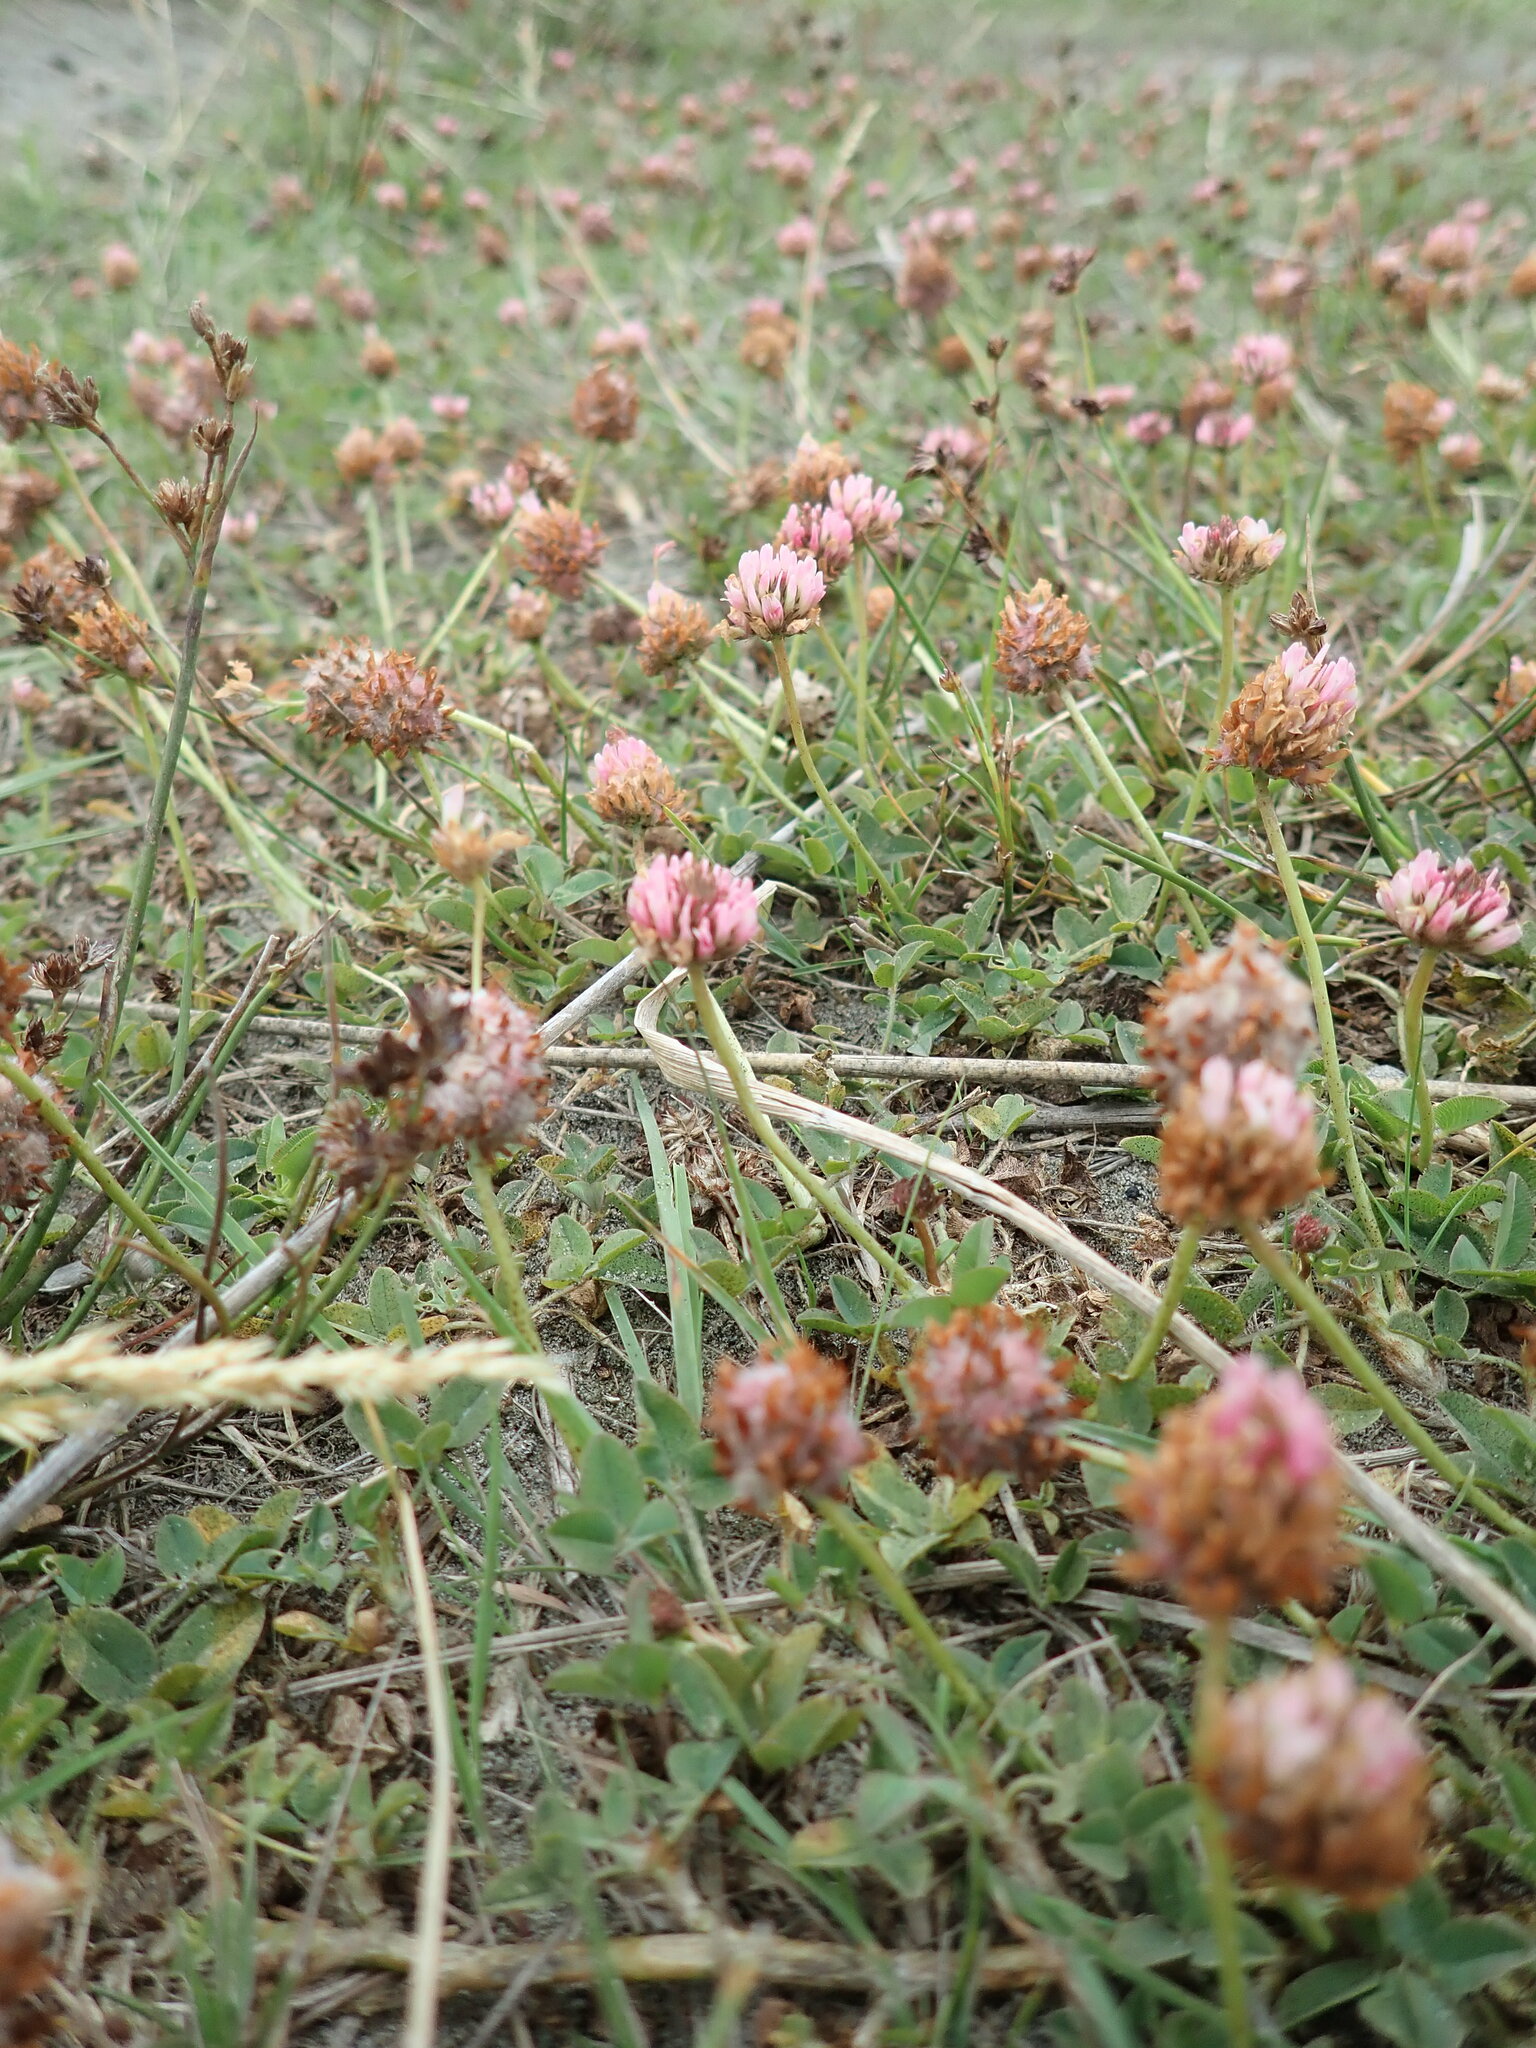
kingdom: Plantae
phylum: Tracheophyta
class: Magnoliopsida
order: Fabales
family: Fabaceae
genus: Trifolium
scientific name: Trifolium fragiferum
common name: Strawberry clover
